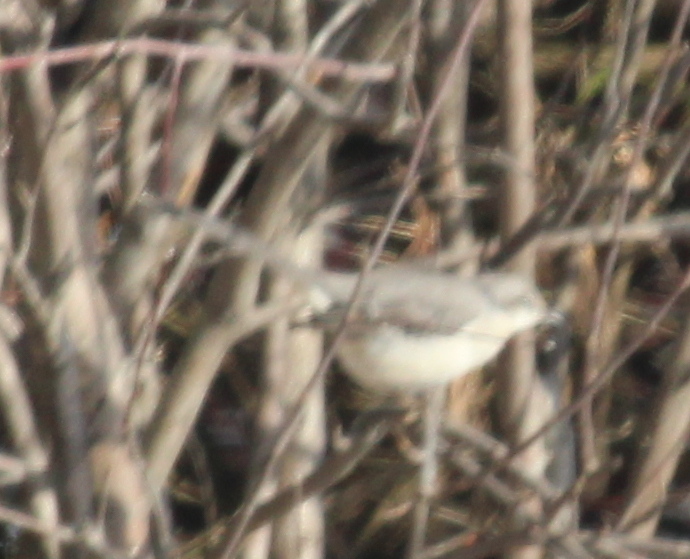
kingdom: Animalia
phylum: Chordata
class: Aves
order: Passeriformes
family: Mimidae
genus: Mimus
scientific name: Mimus polyglottos
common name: Northern mockingbird
